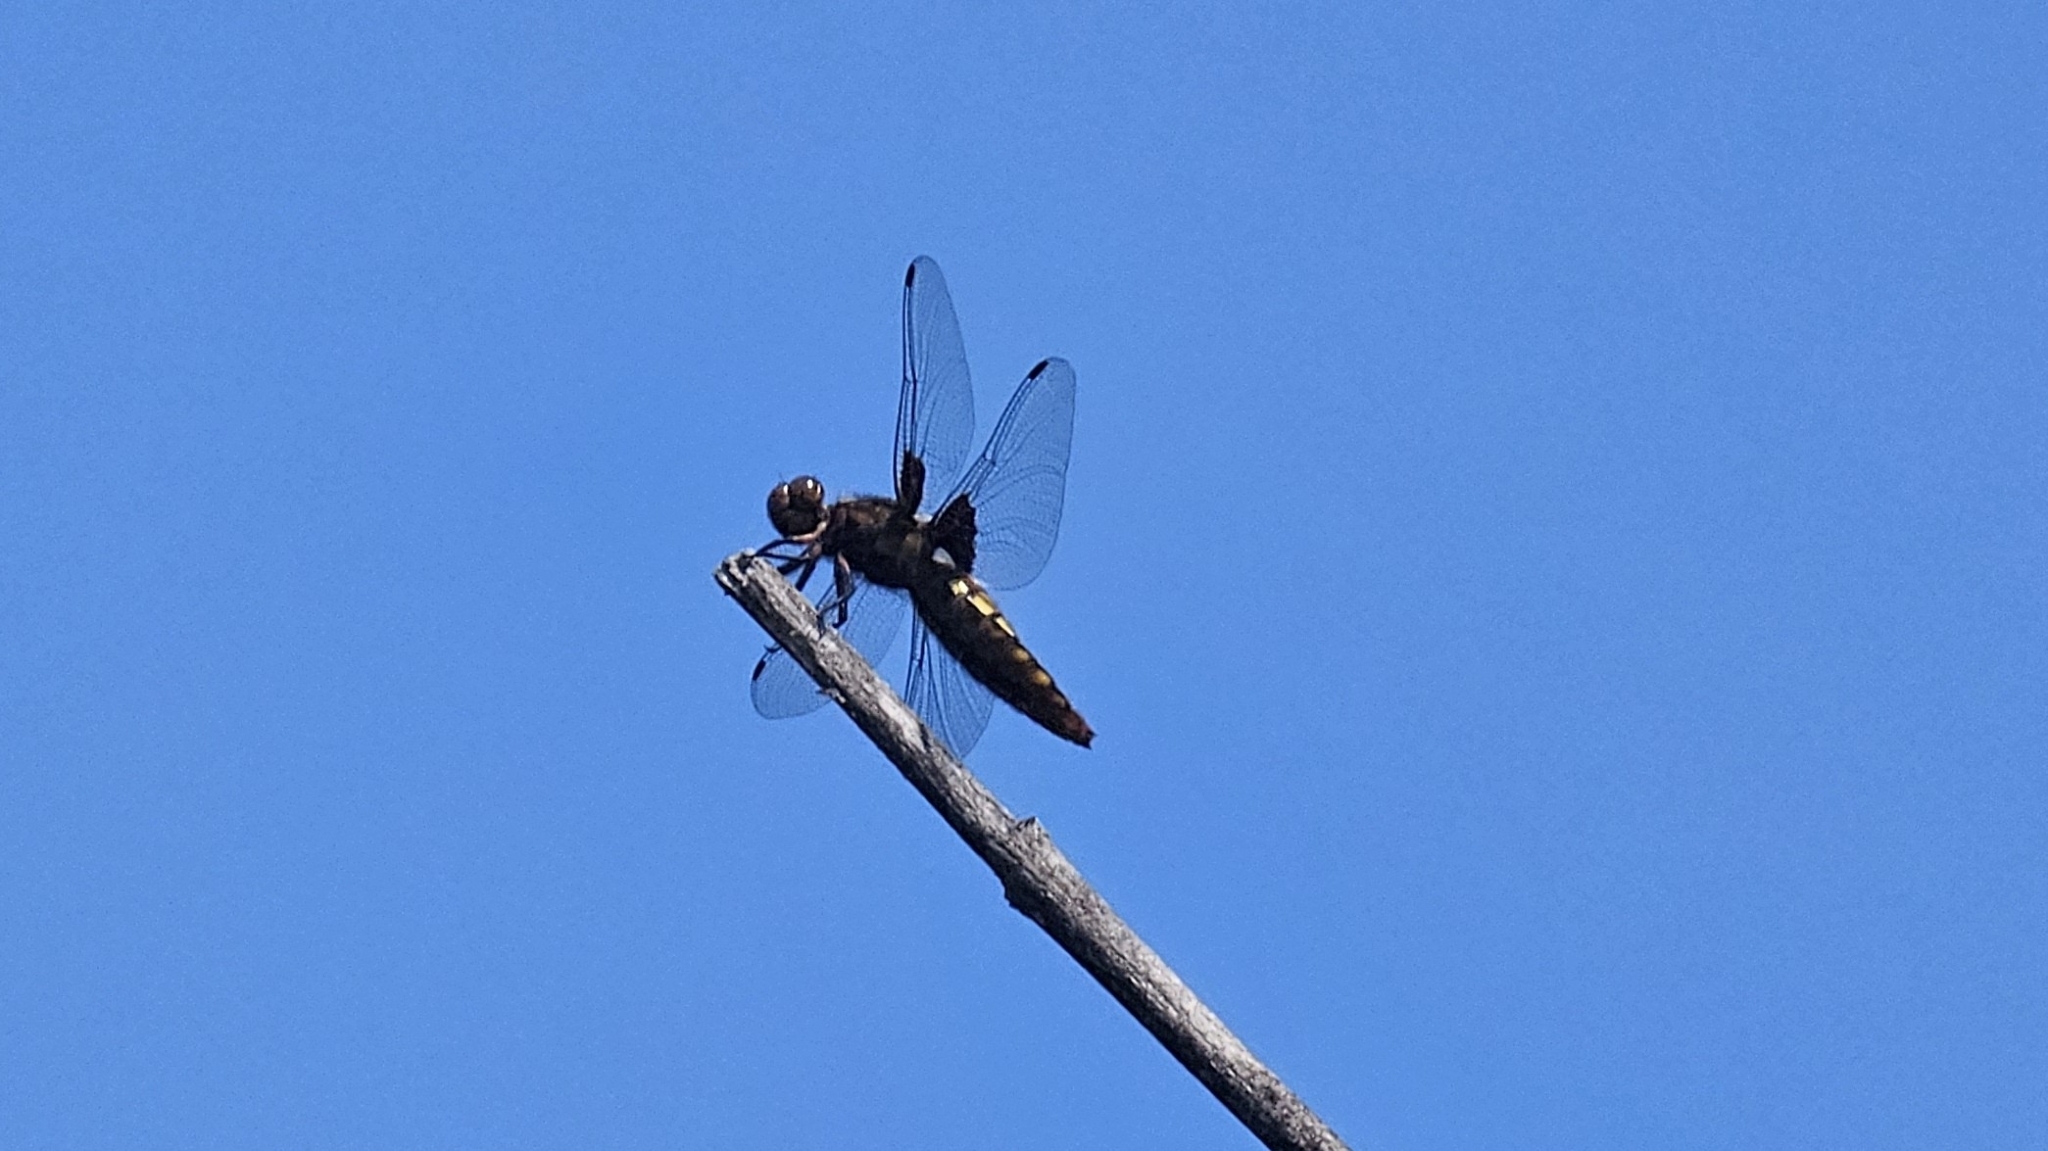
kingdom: Animalia
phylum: Arthropoda
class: Insecta
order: Odonata
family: Libellulidae
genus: Libellula
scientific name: Libellula depressa
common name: Broad-bodied chaser
